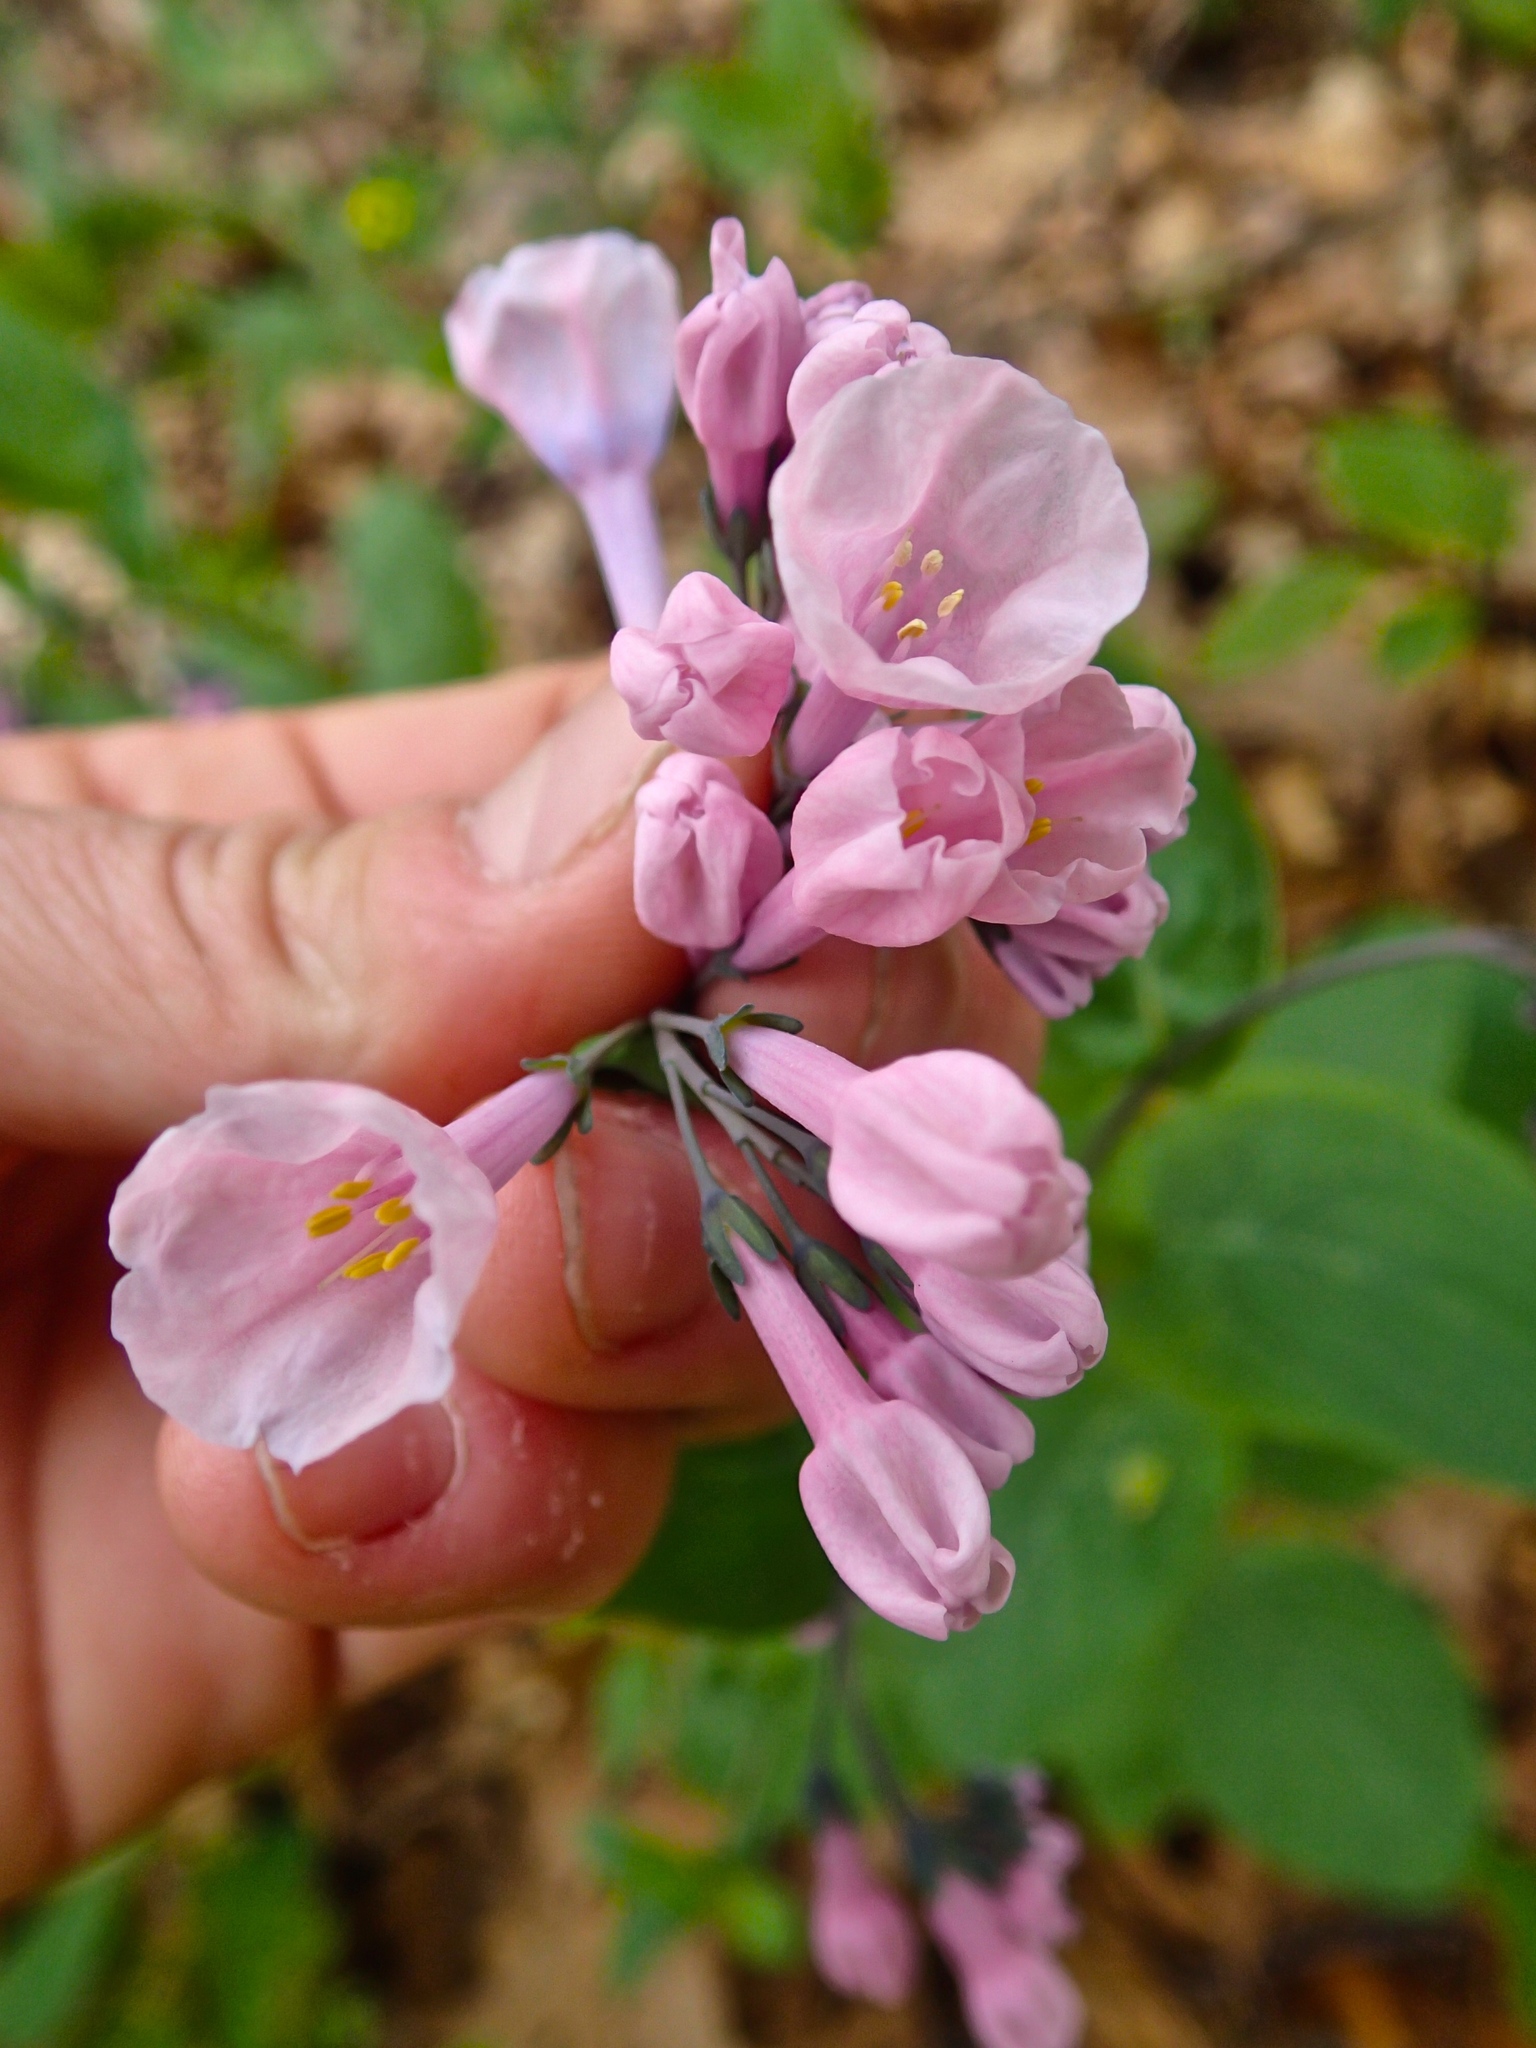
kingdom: Plantae
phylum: Tracheophyta
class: Magnoliopsida
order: Boraginales
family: Boraginaceae
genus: Mertensia
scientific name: Mertensia virginica
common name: Virginia bluebells
